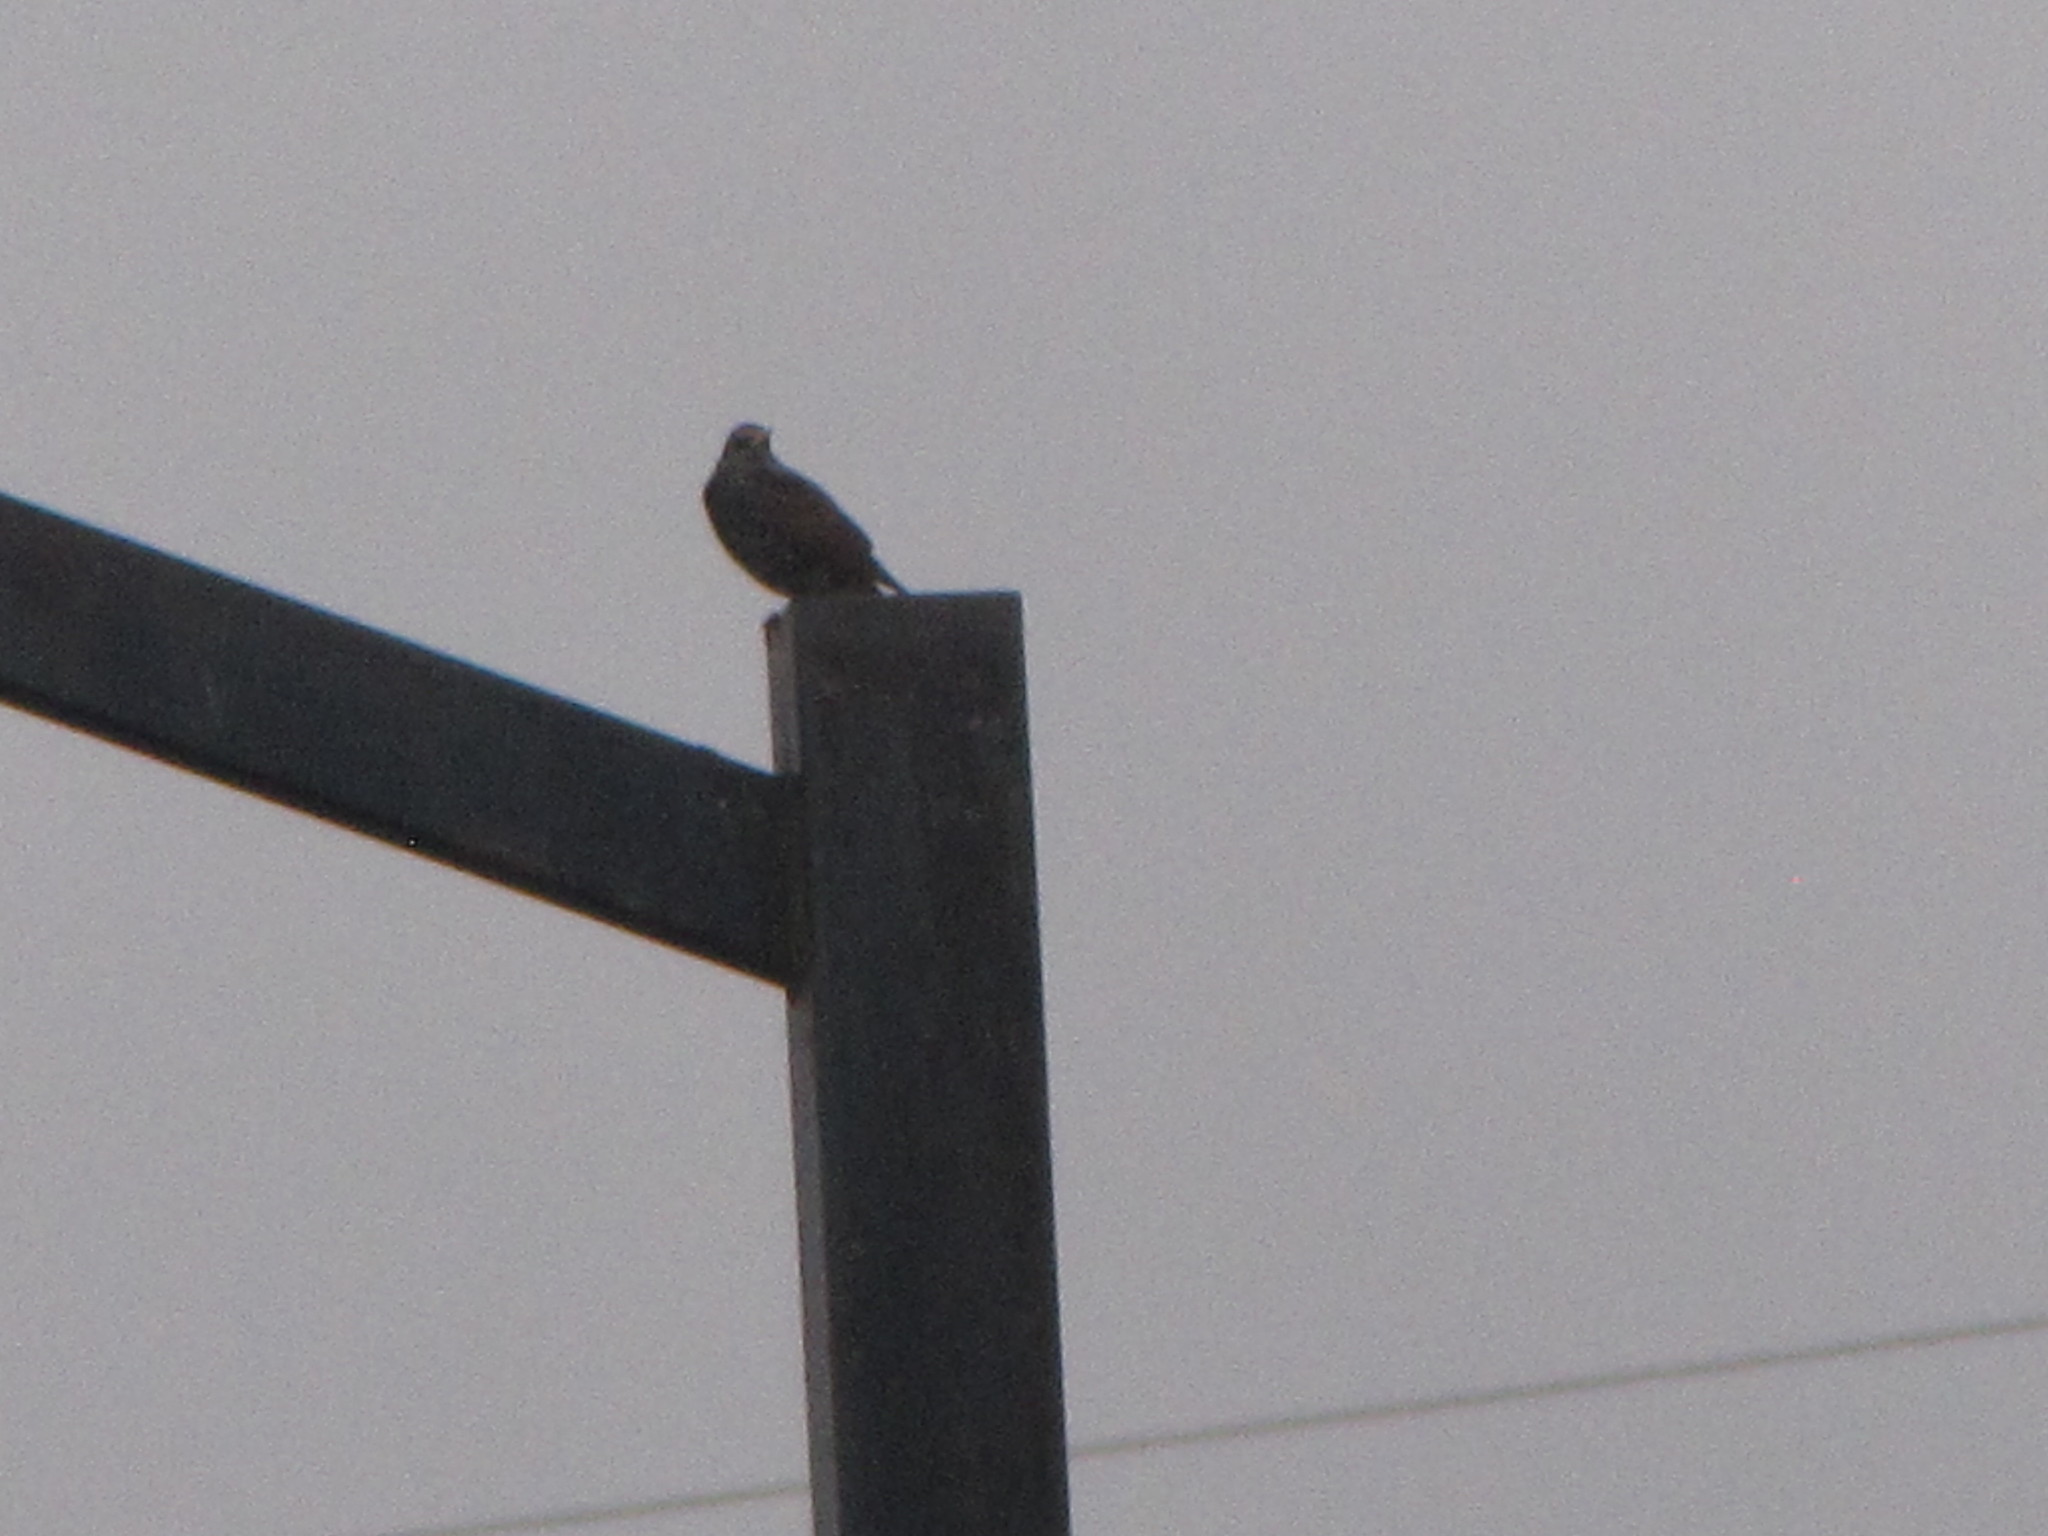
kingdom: Animalia
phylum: Chordata
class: Aves
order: Passeriformes
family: Sturnidae
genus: Sturnus
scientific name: Sturnus vulgaris
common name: Common starling
